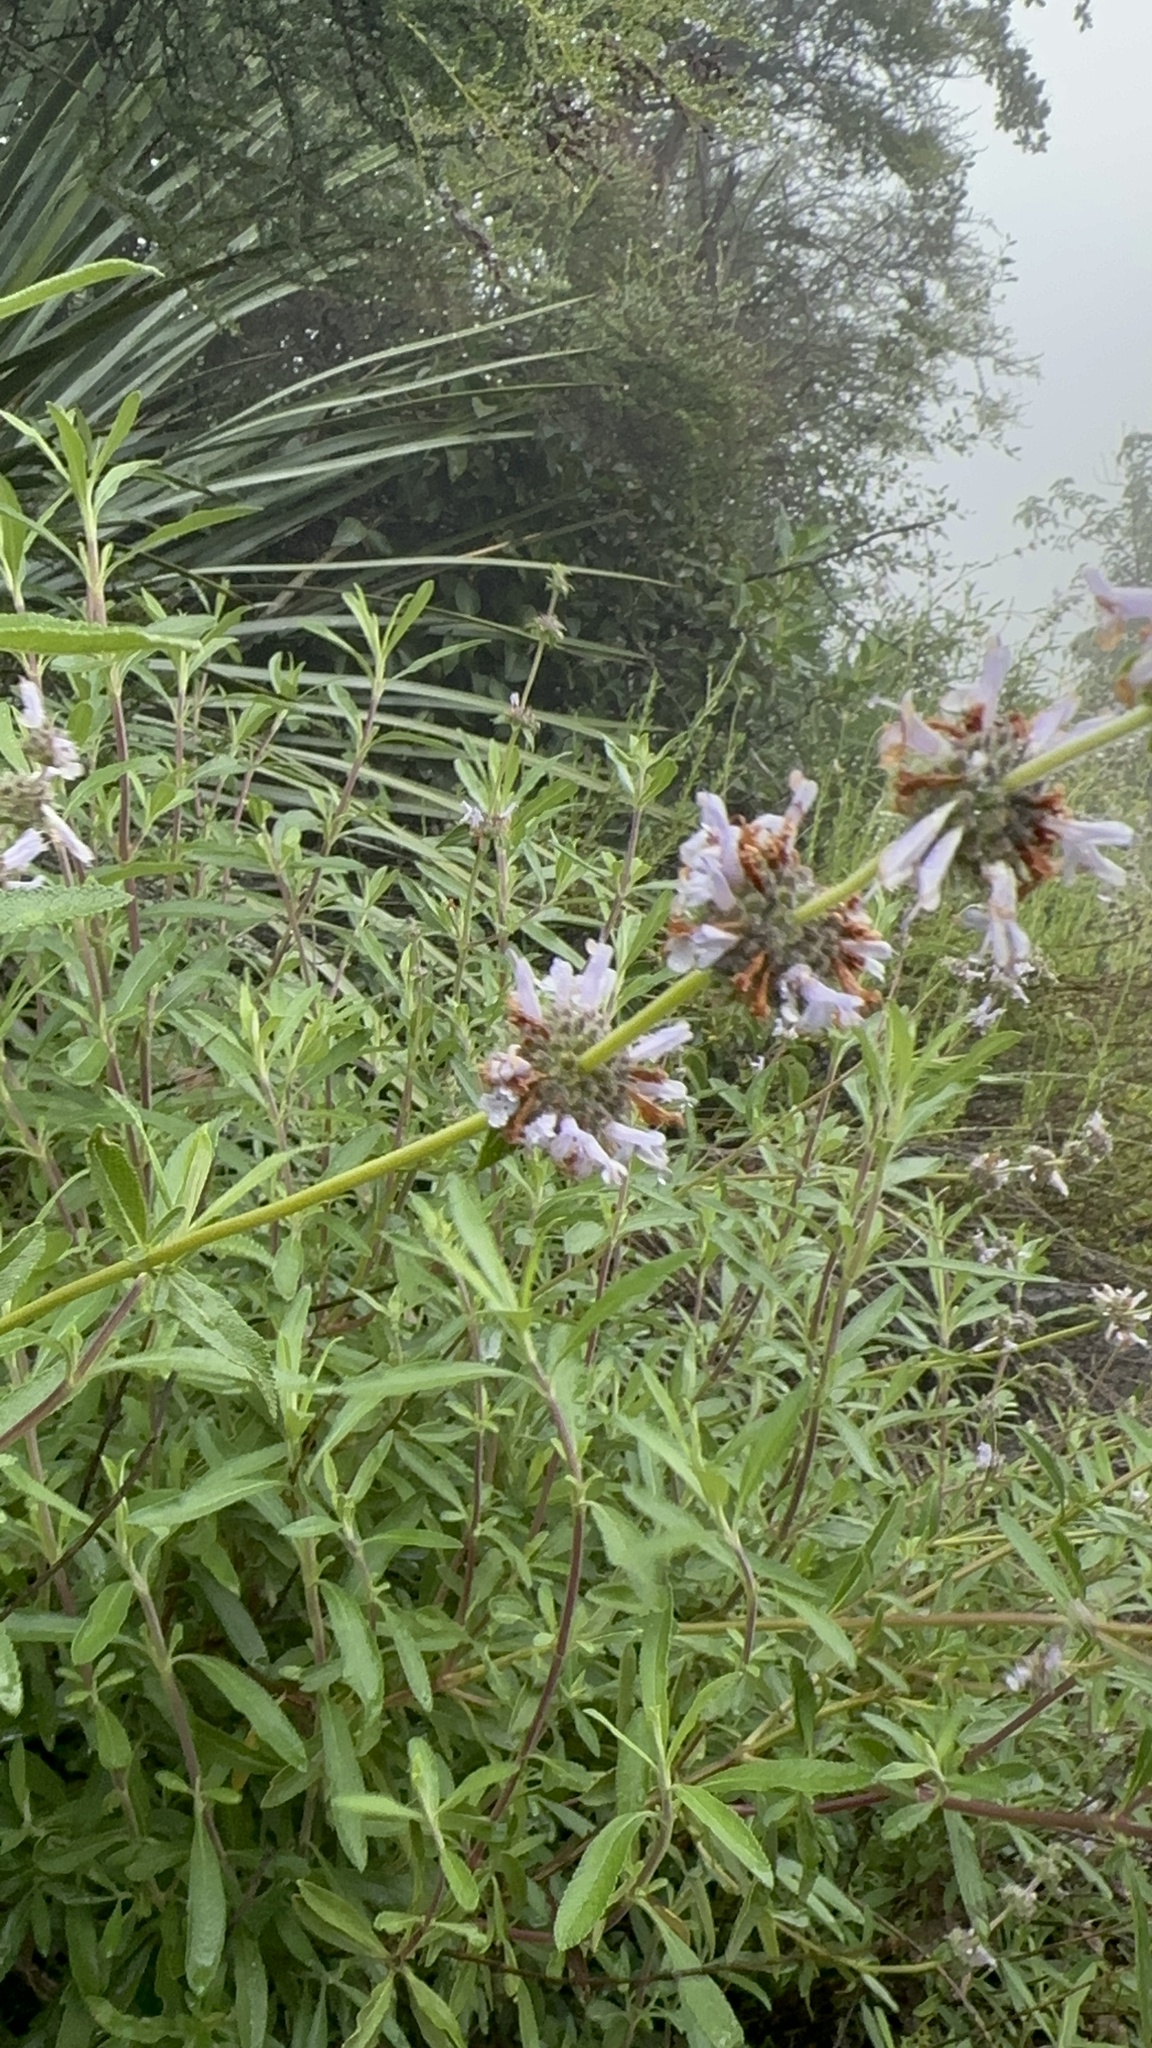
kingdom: Plantae
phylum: Tracheophyta
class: Magnoliopsida
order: Lamiales
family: Lamiaceae
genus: Salvia
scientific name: Salvia mellifera
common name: Black sage
